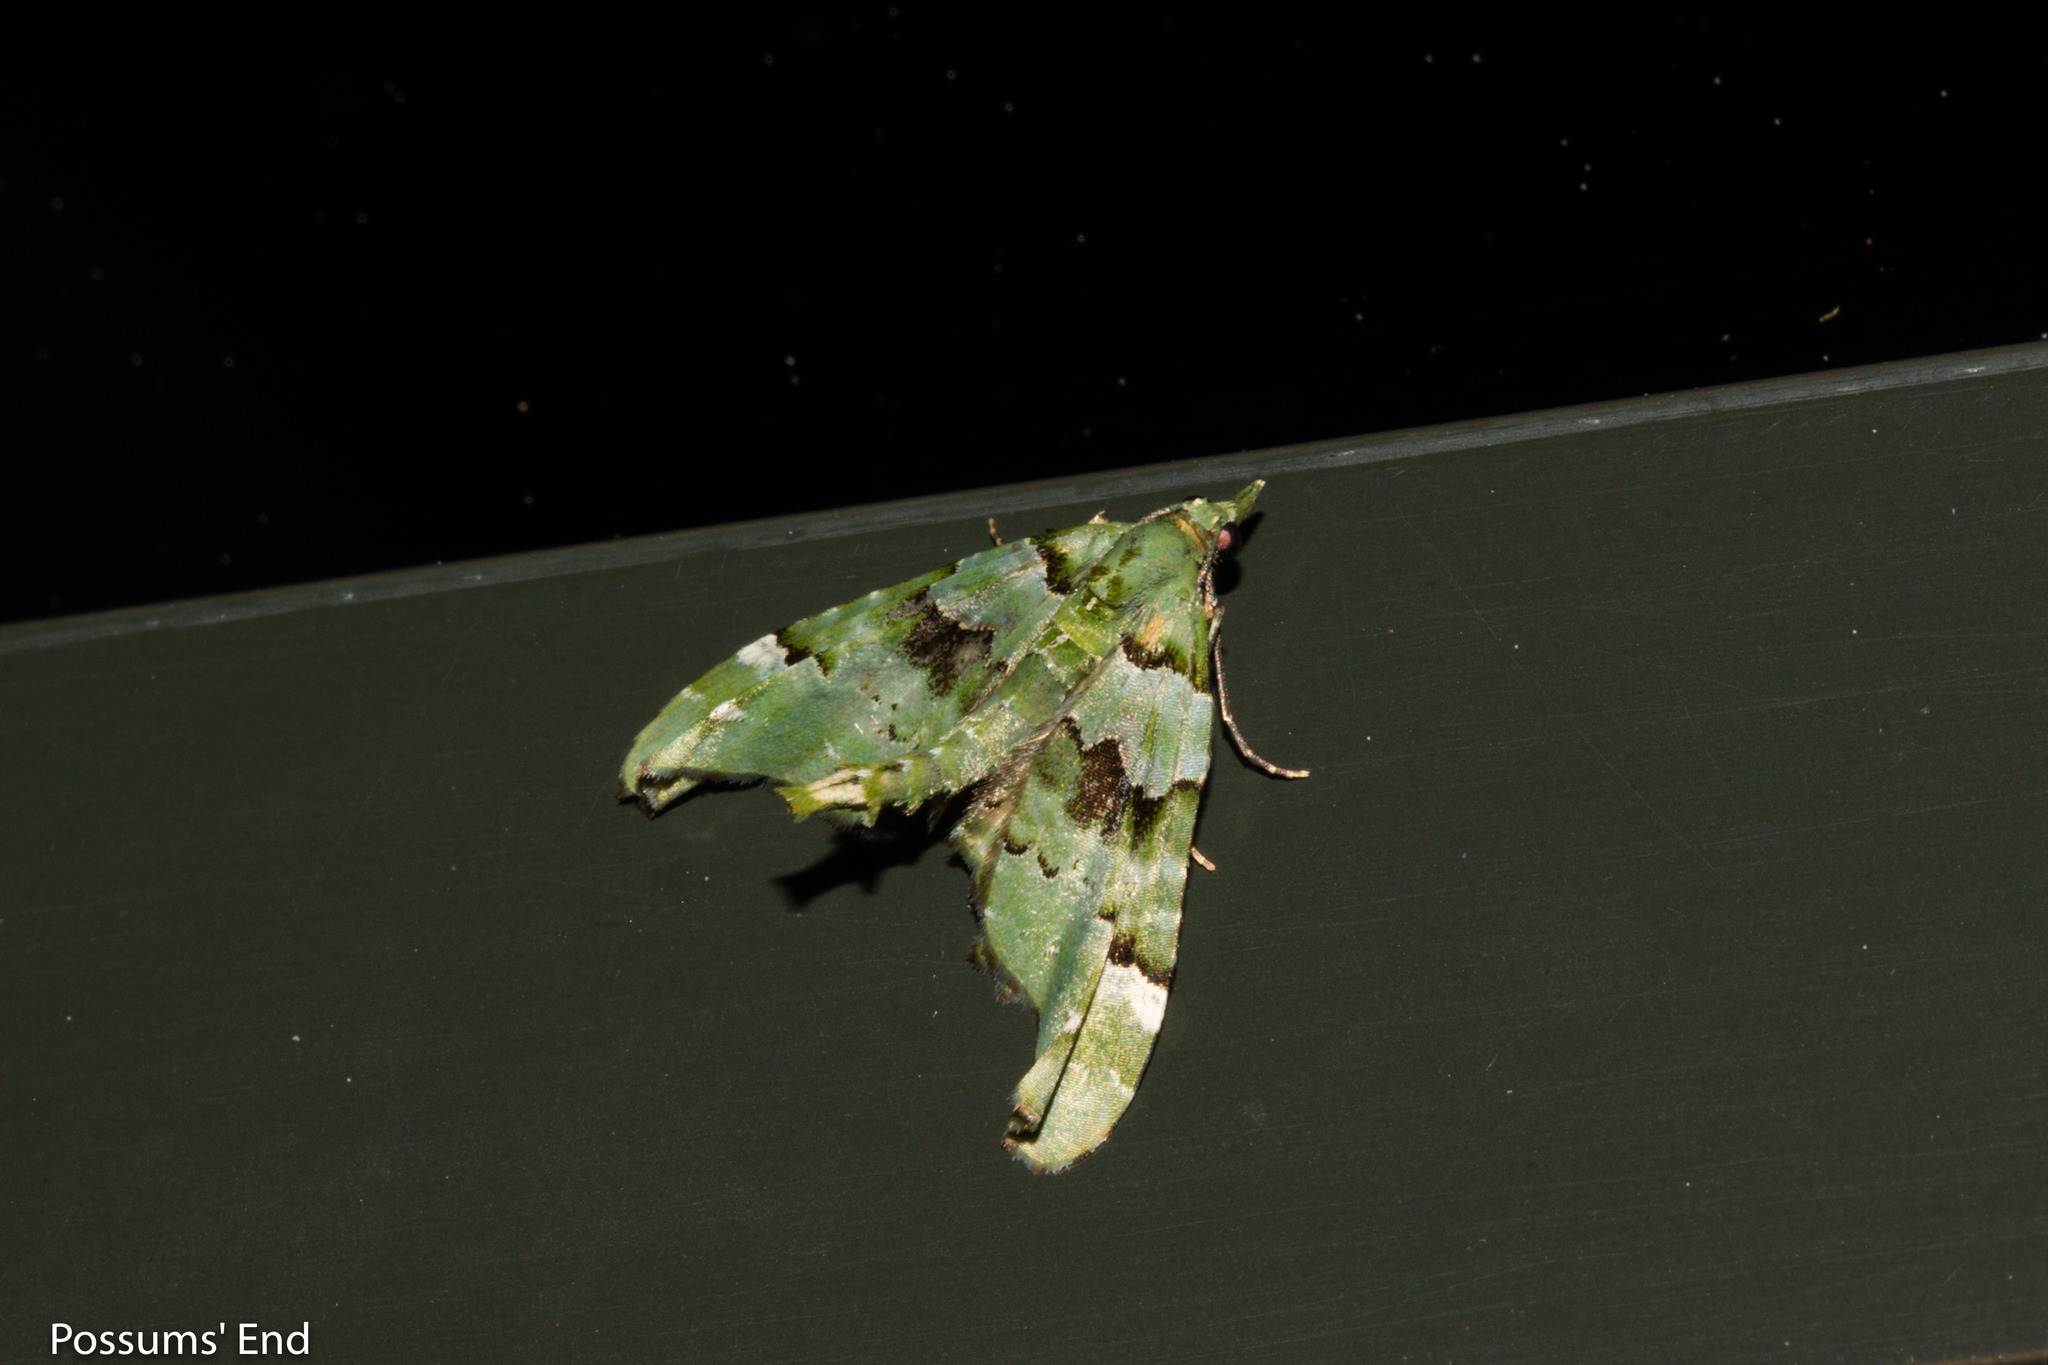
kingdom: Animalia
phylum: Arthropoda
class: Insecta
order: Lepidoptera
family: Geometridae
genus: Elvia
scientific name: Elvia glaucata
